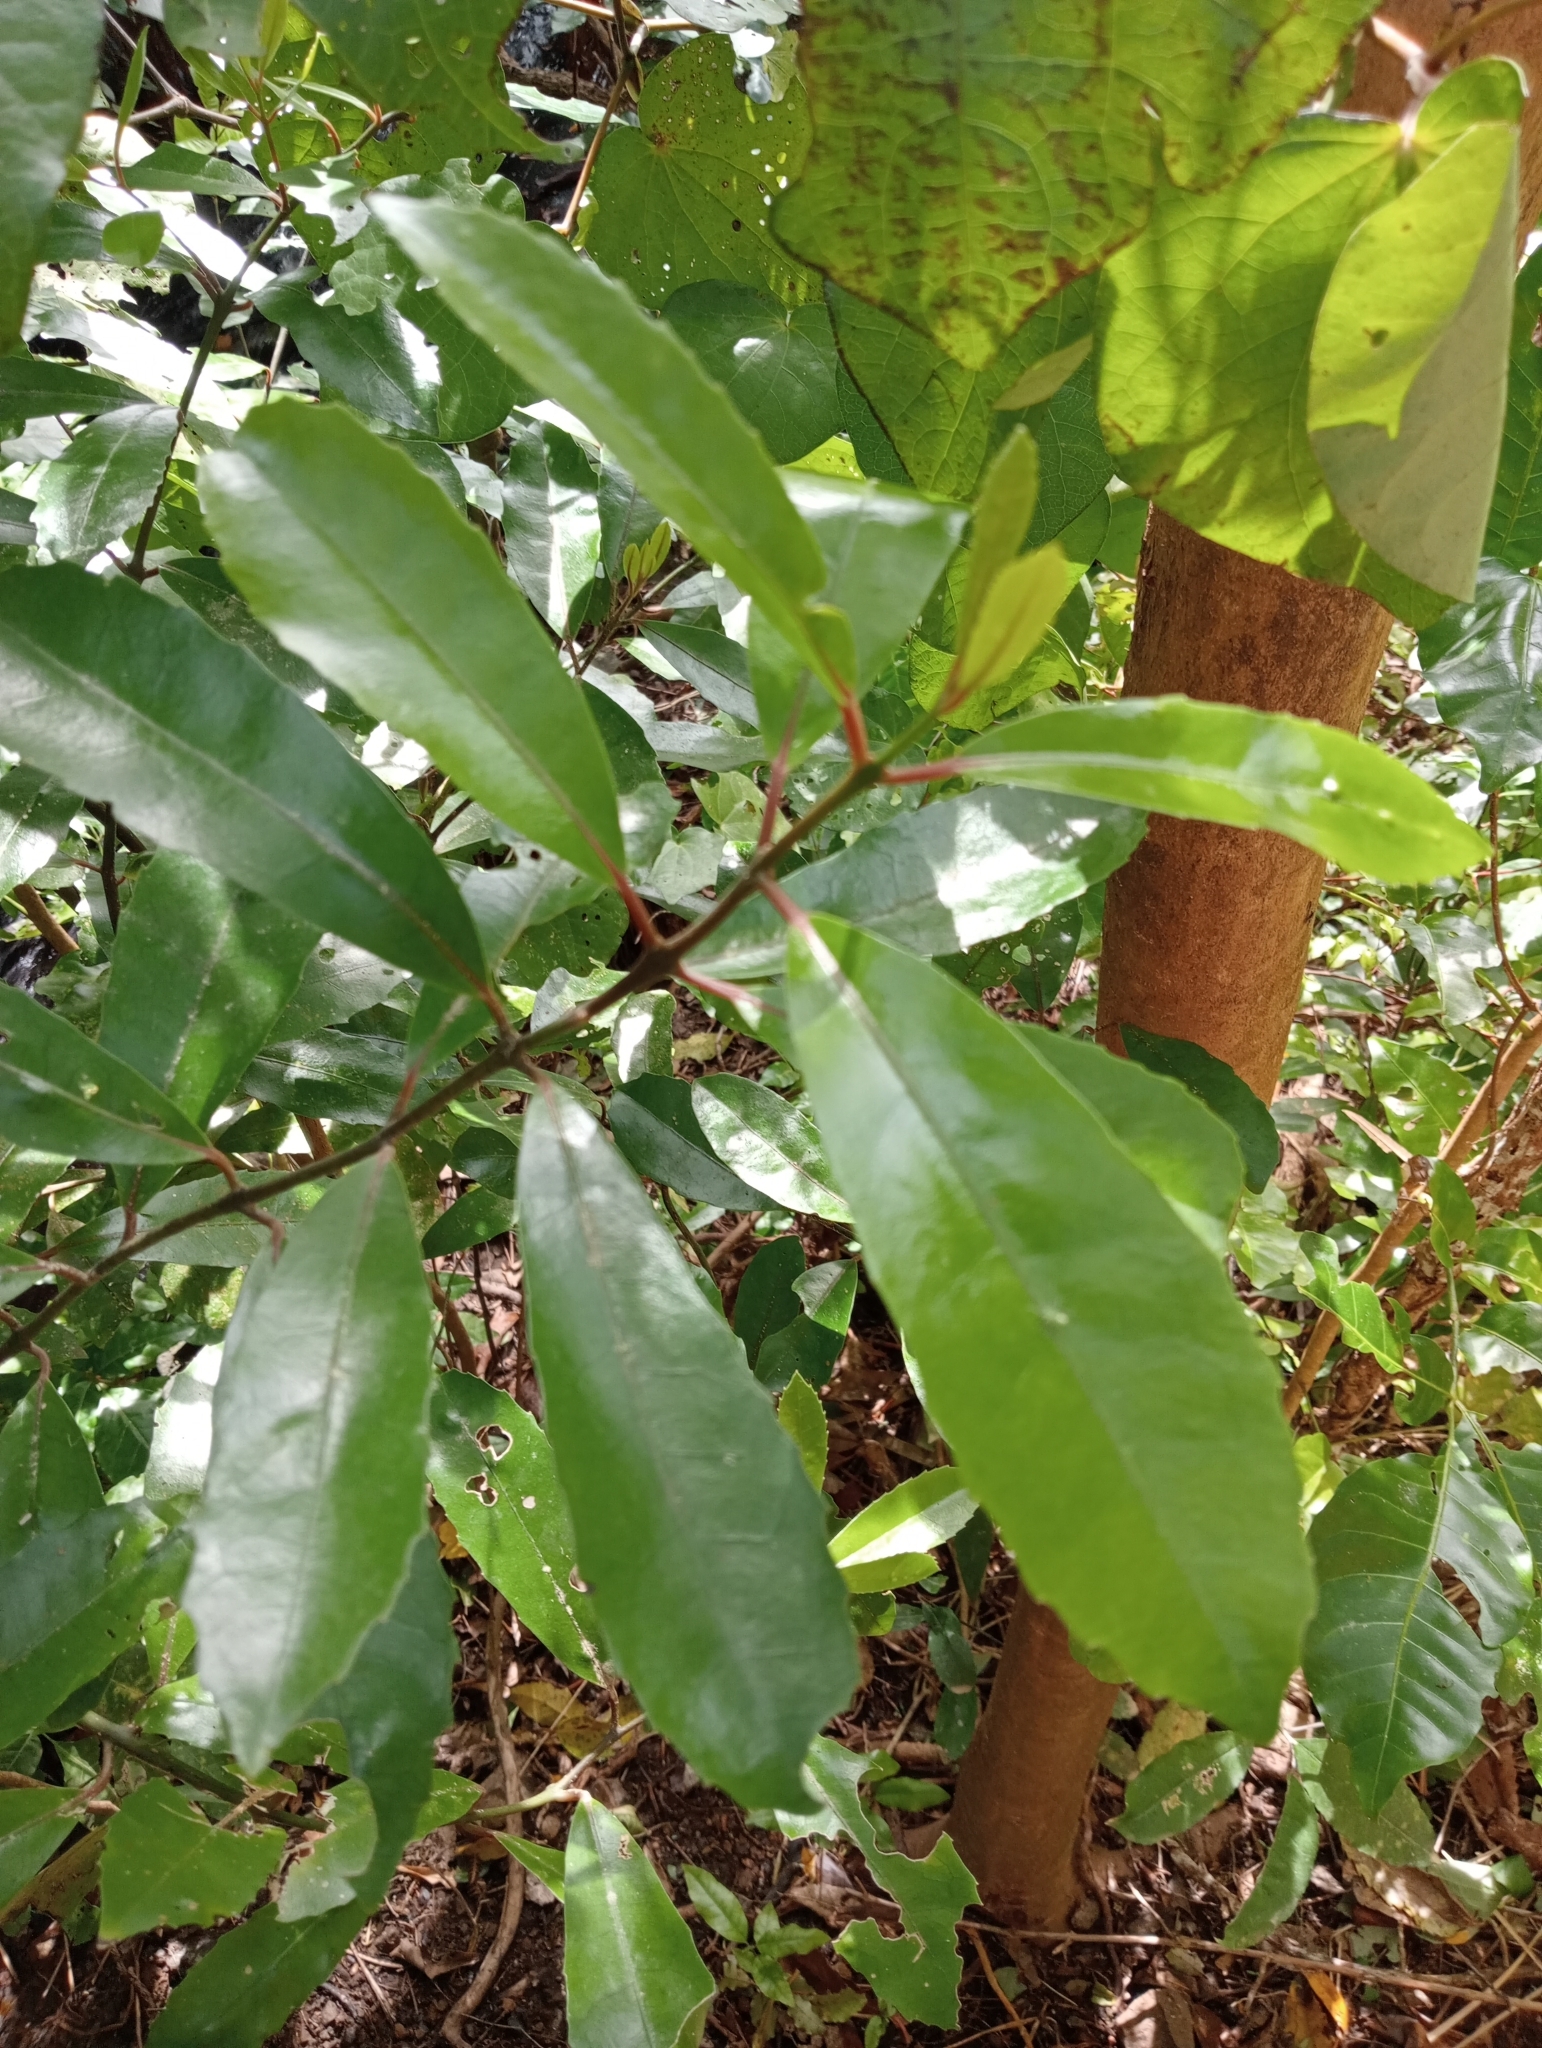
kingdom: Plantae
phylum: Tracheophyta
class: Magnoliopsida
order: Laurales
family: Monimiaceae
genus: Hedycarya
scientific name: Hedycarya arborea
